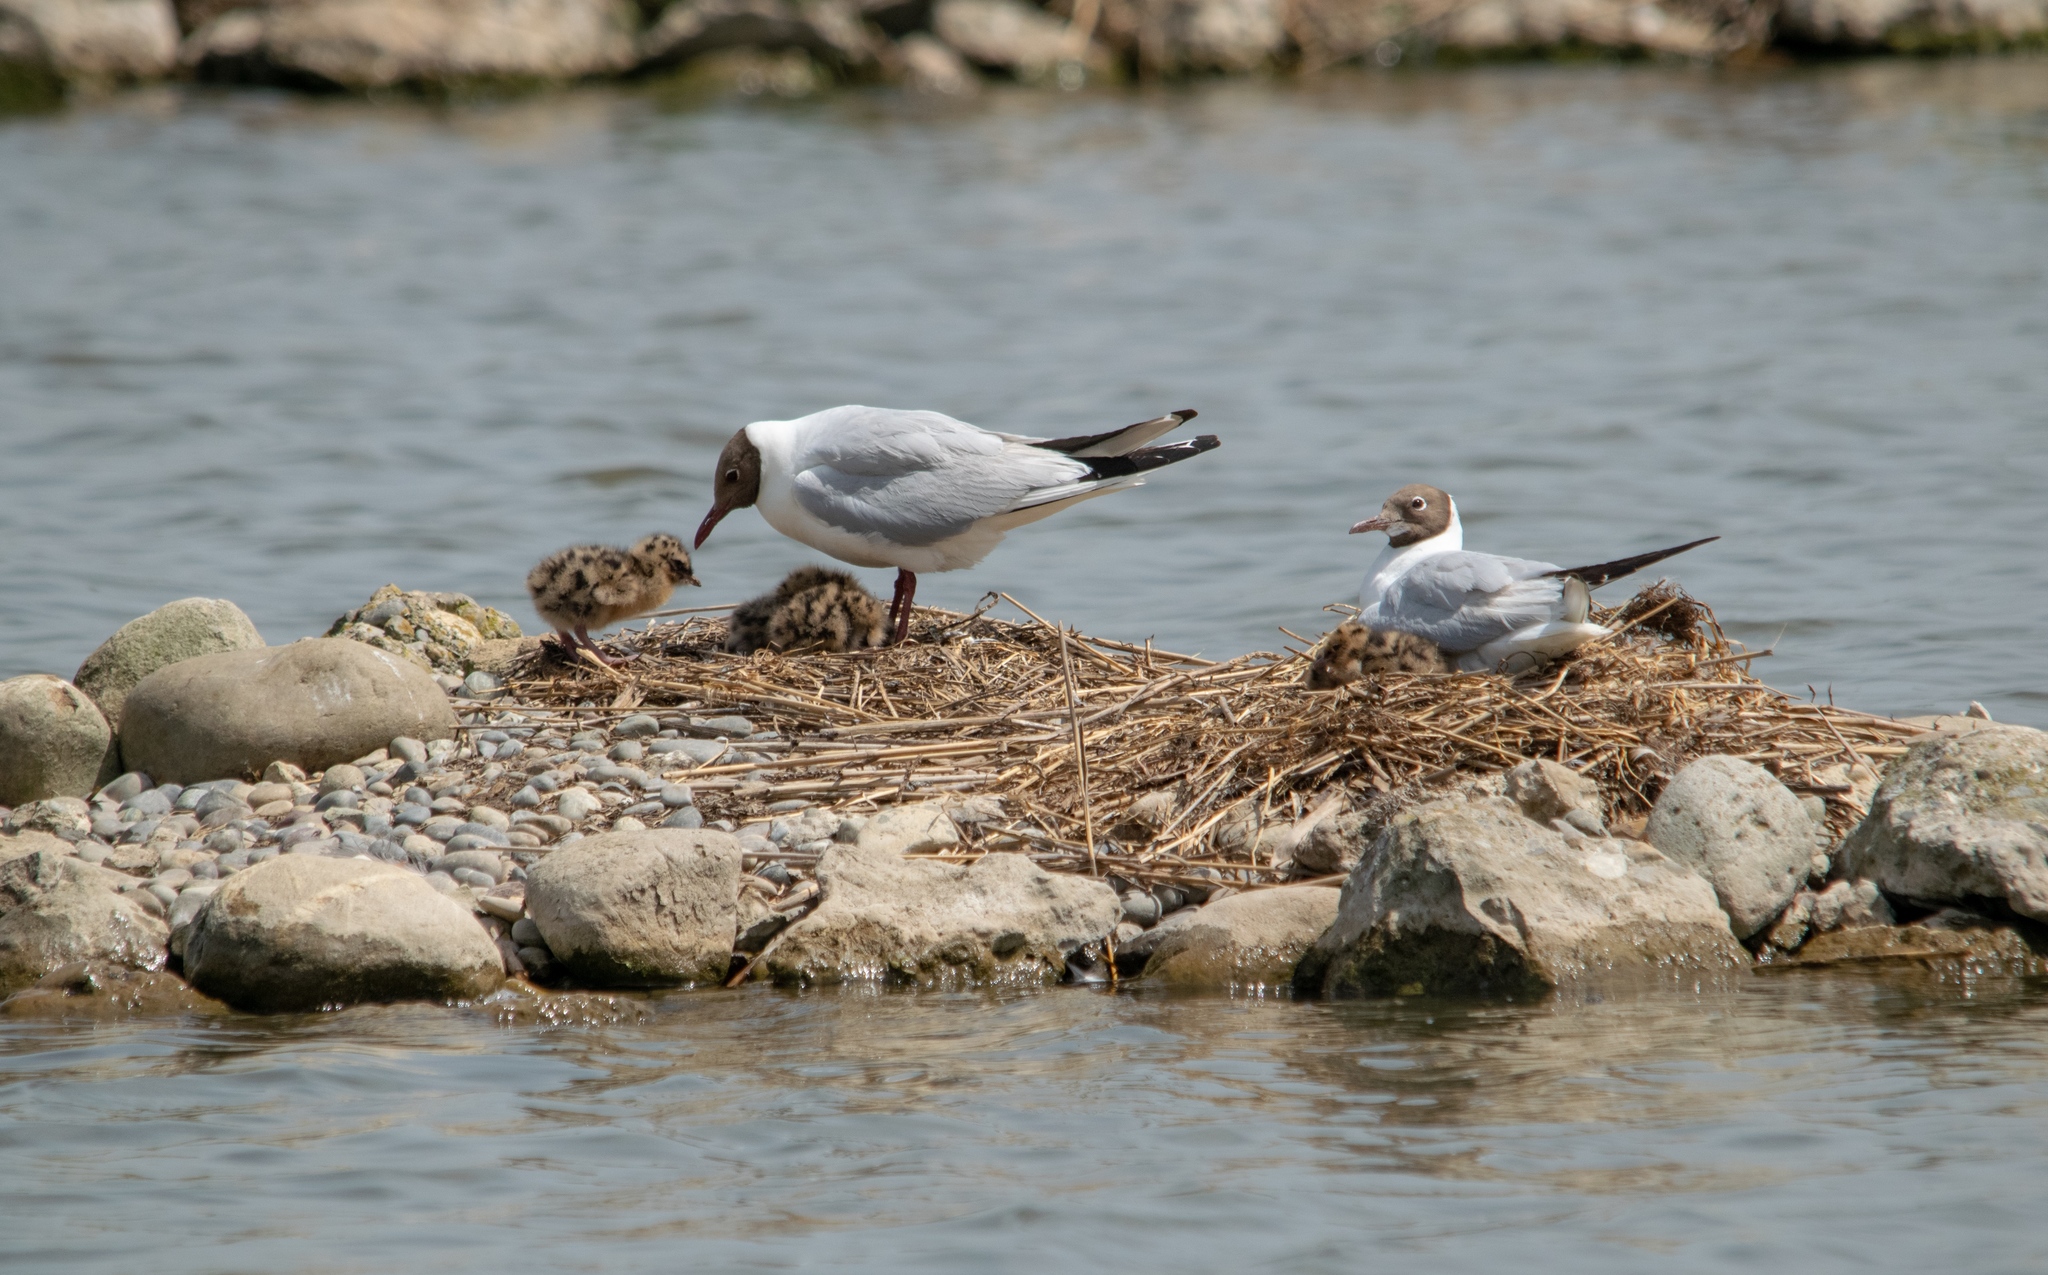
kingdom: Animalia
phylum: Chordata
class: Aves
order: Charadriiformes
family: Laridae
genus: Chroicocephalus
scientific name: Chroicocephalus ridibundus
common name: Black-headed gull
